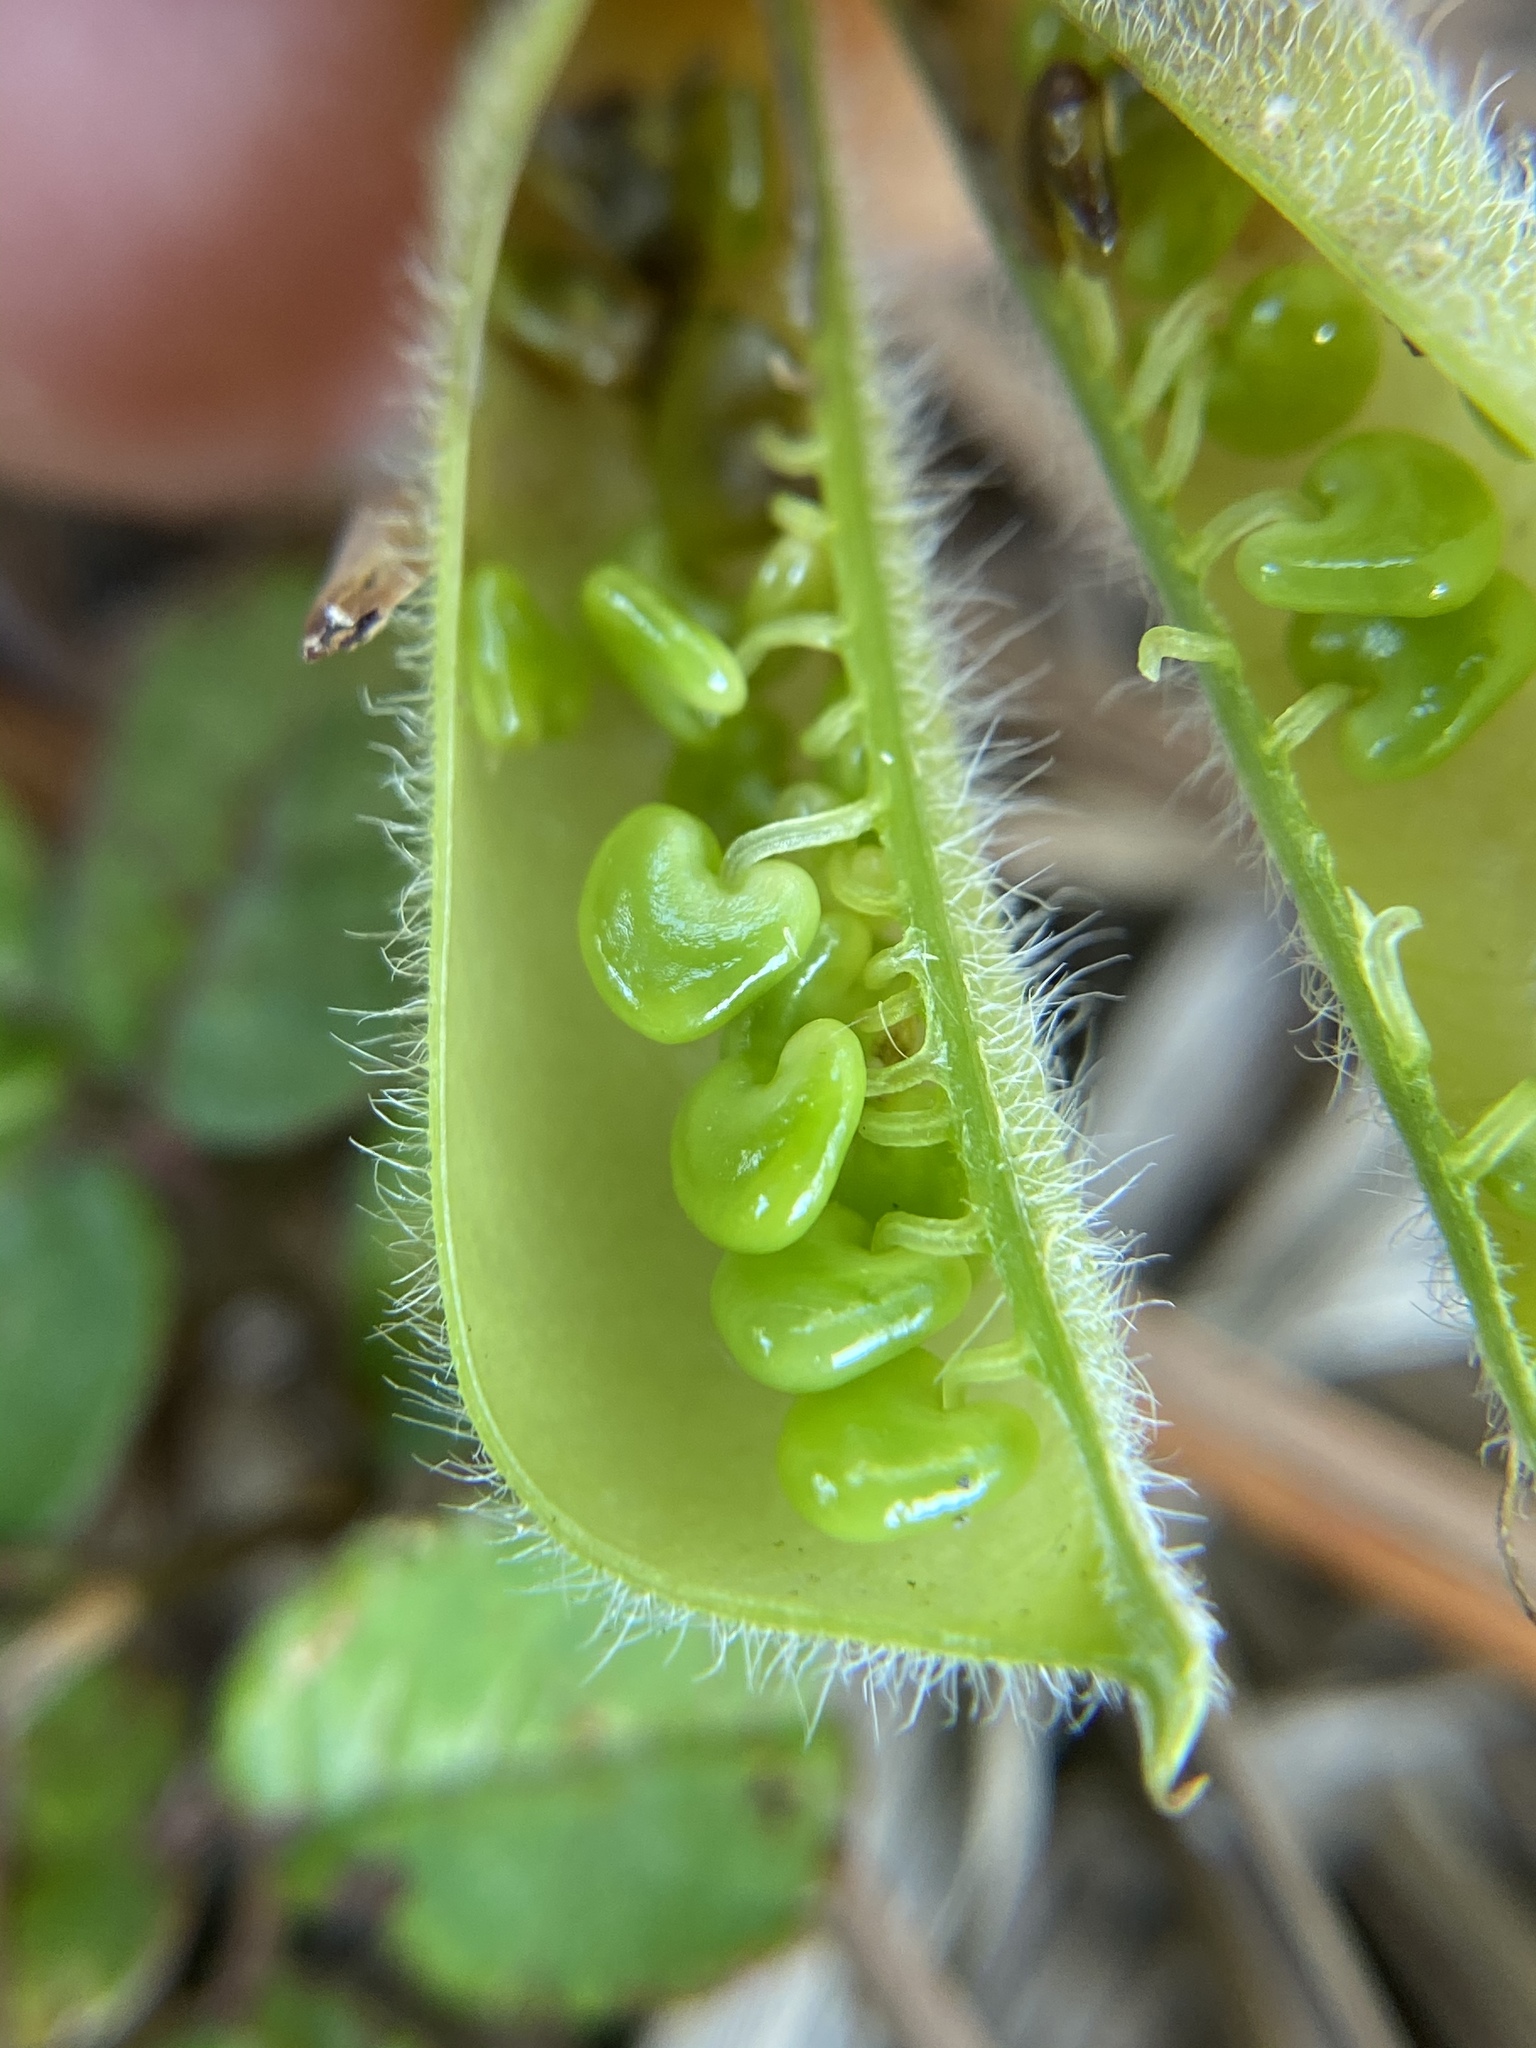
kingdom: Plantae
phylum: Tracheophyta
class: Magnoliopsida
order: Fabales
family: Fabaceae
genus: Crotalaria
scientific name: Crotalaria pallida
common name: Smooth rattlebox
